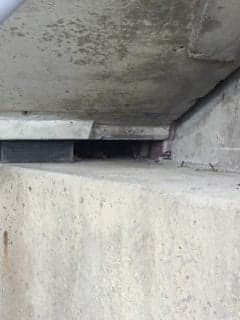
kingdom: Animalia
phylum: Chordata
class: Mammalia
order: Rodentia
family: Sciuridae
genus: Marmota
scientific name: Marmota monax
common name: Groundhog
